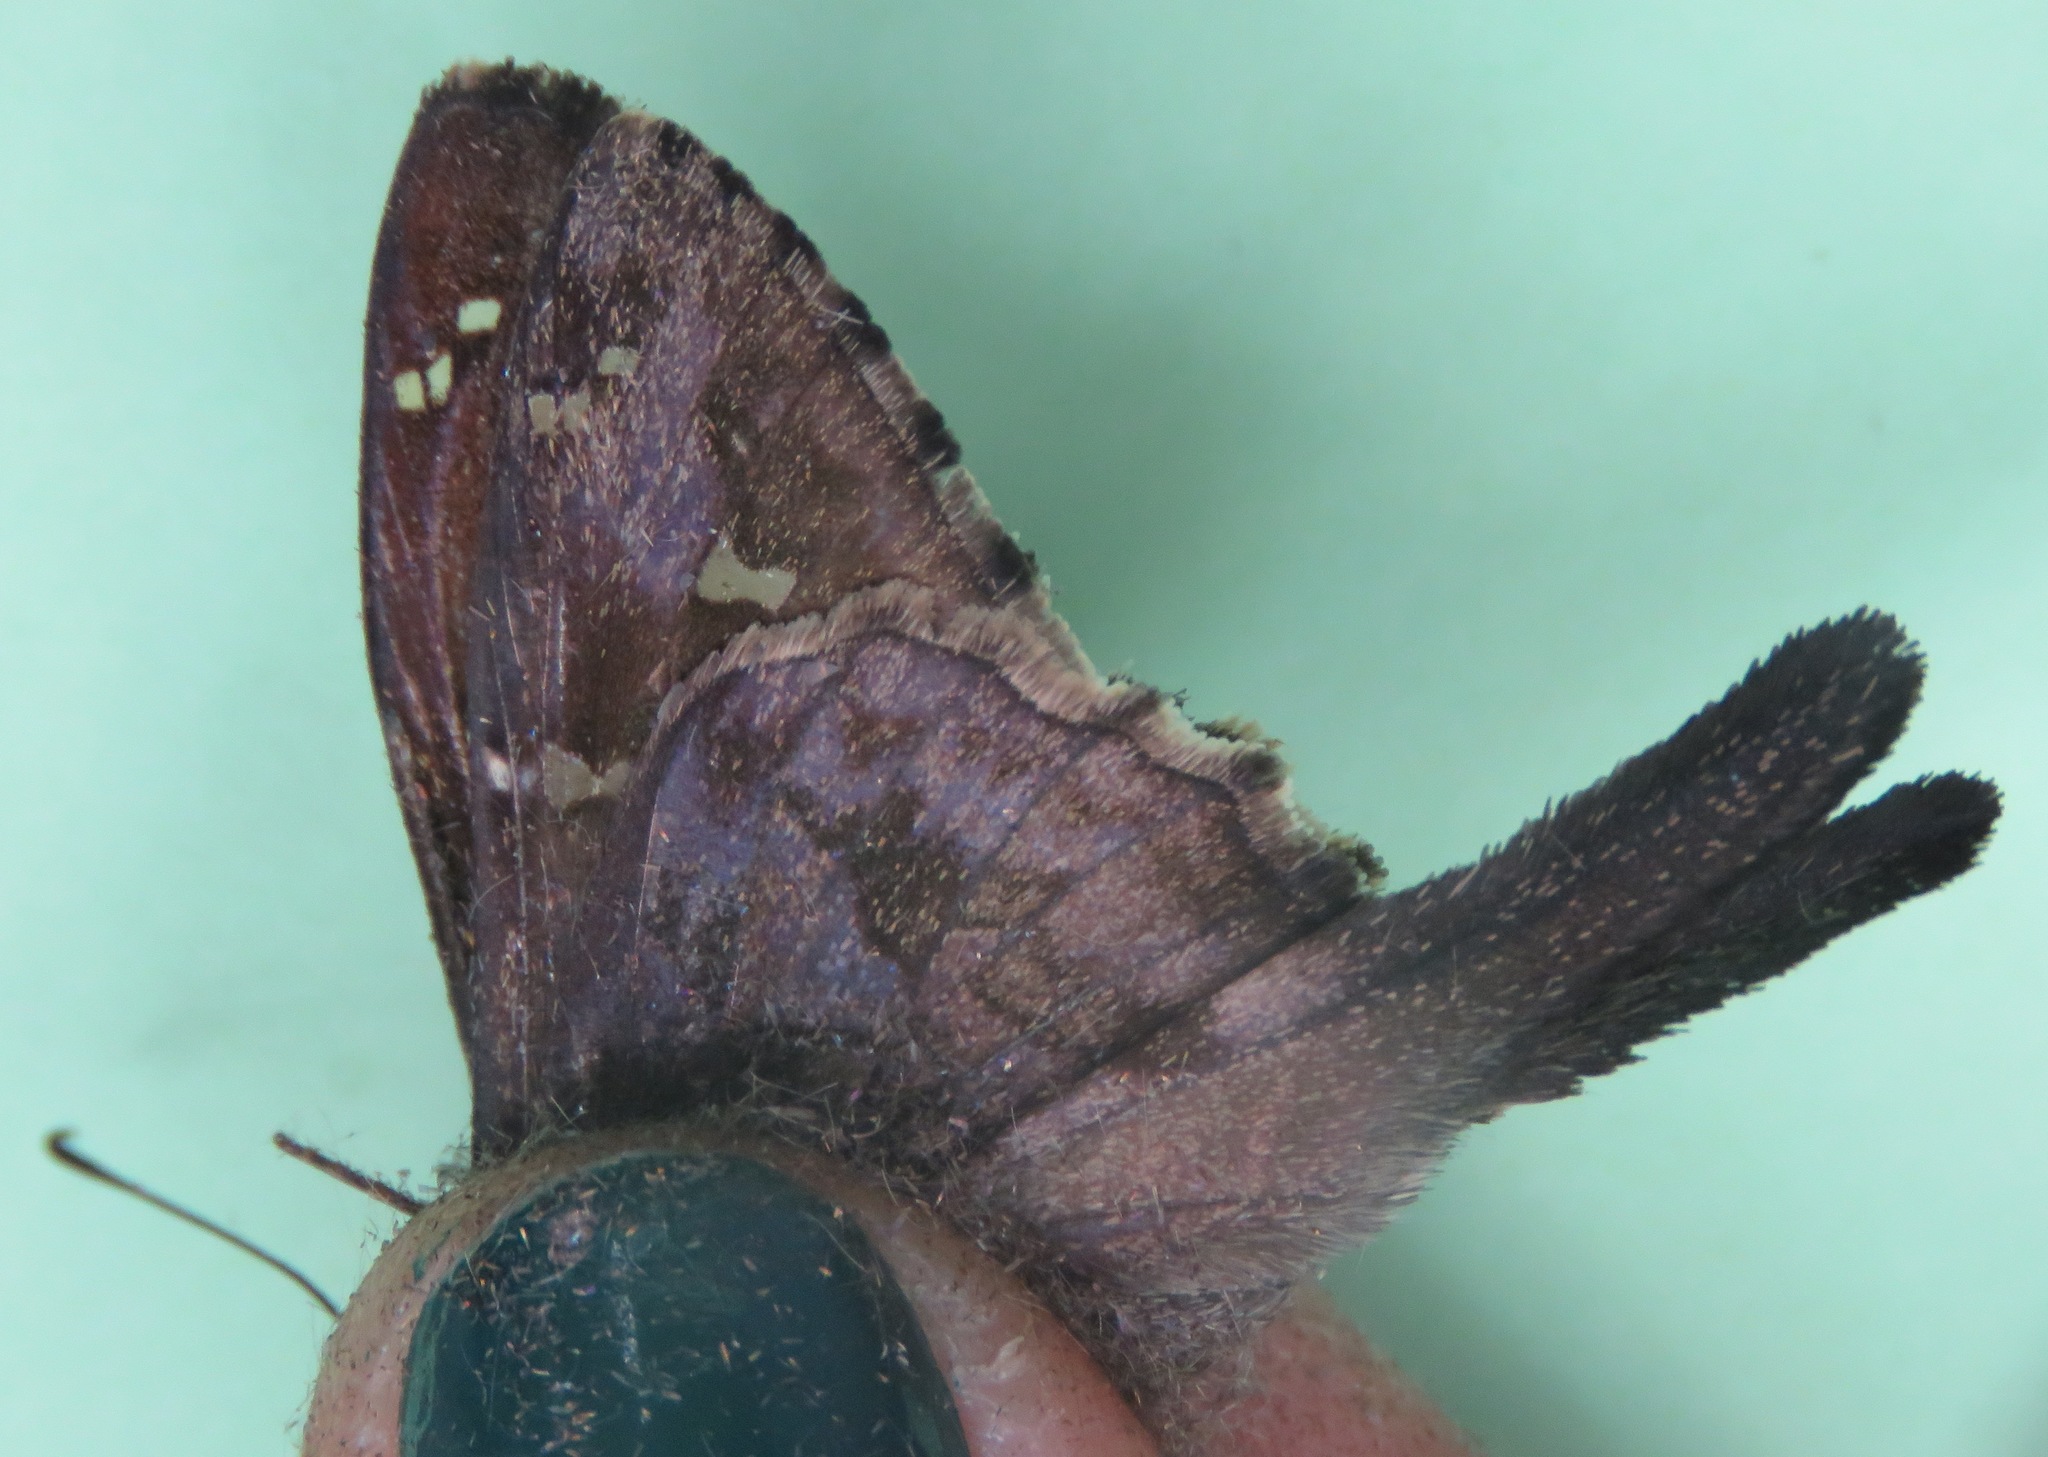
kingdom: Animalia
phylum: Arthropoda
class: Insecta
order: Lepidoptera
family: Hesperiidae
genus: Thorybes
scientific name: Thorybes
